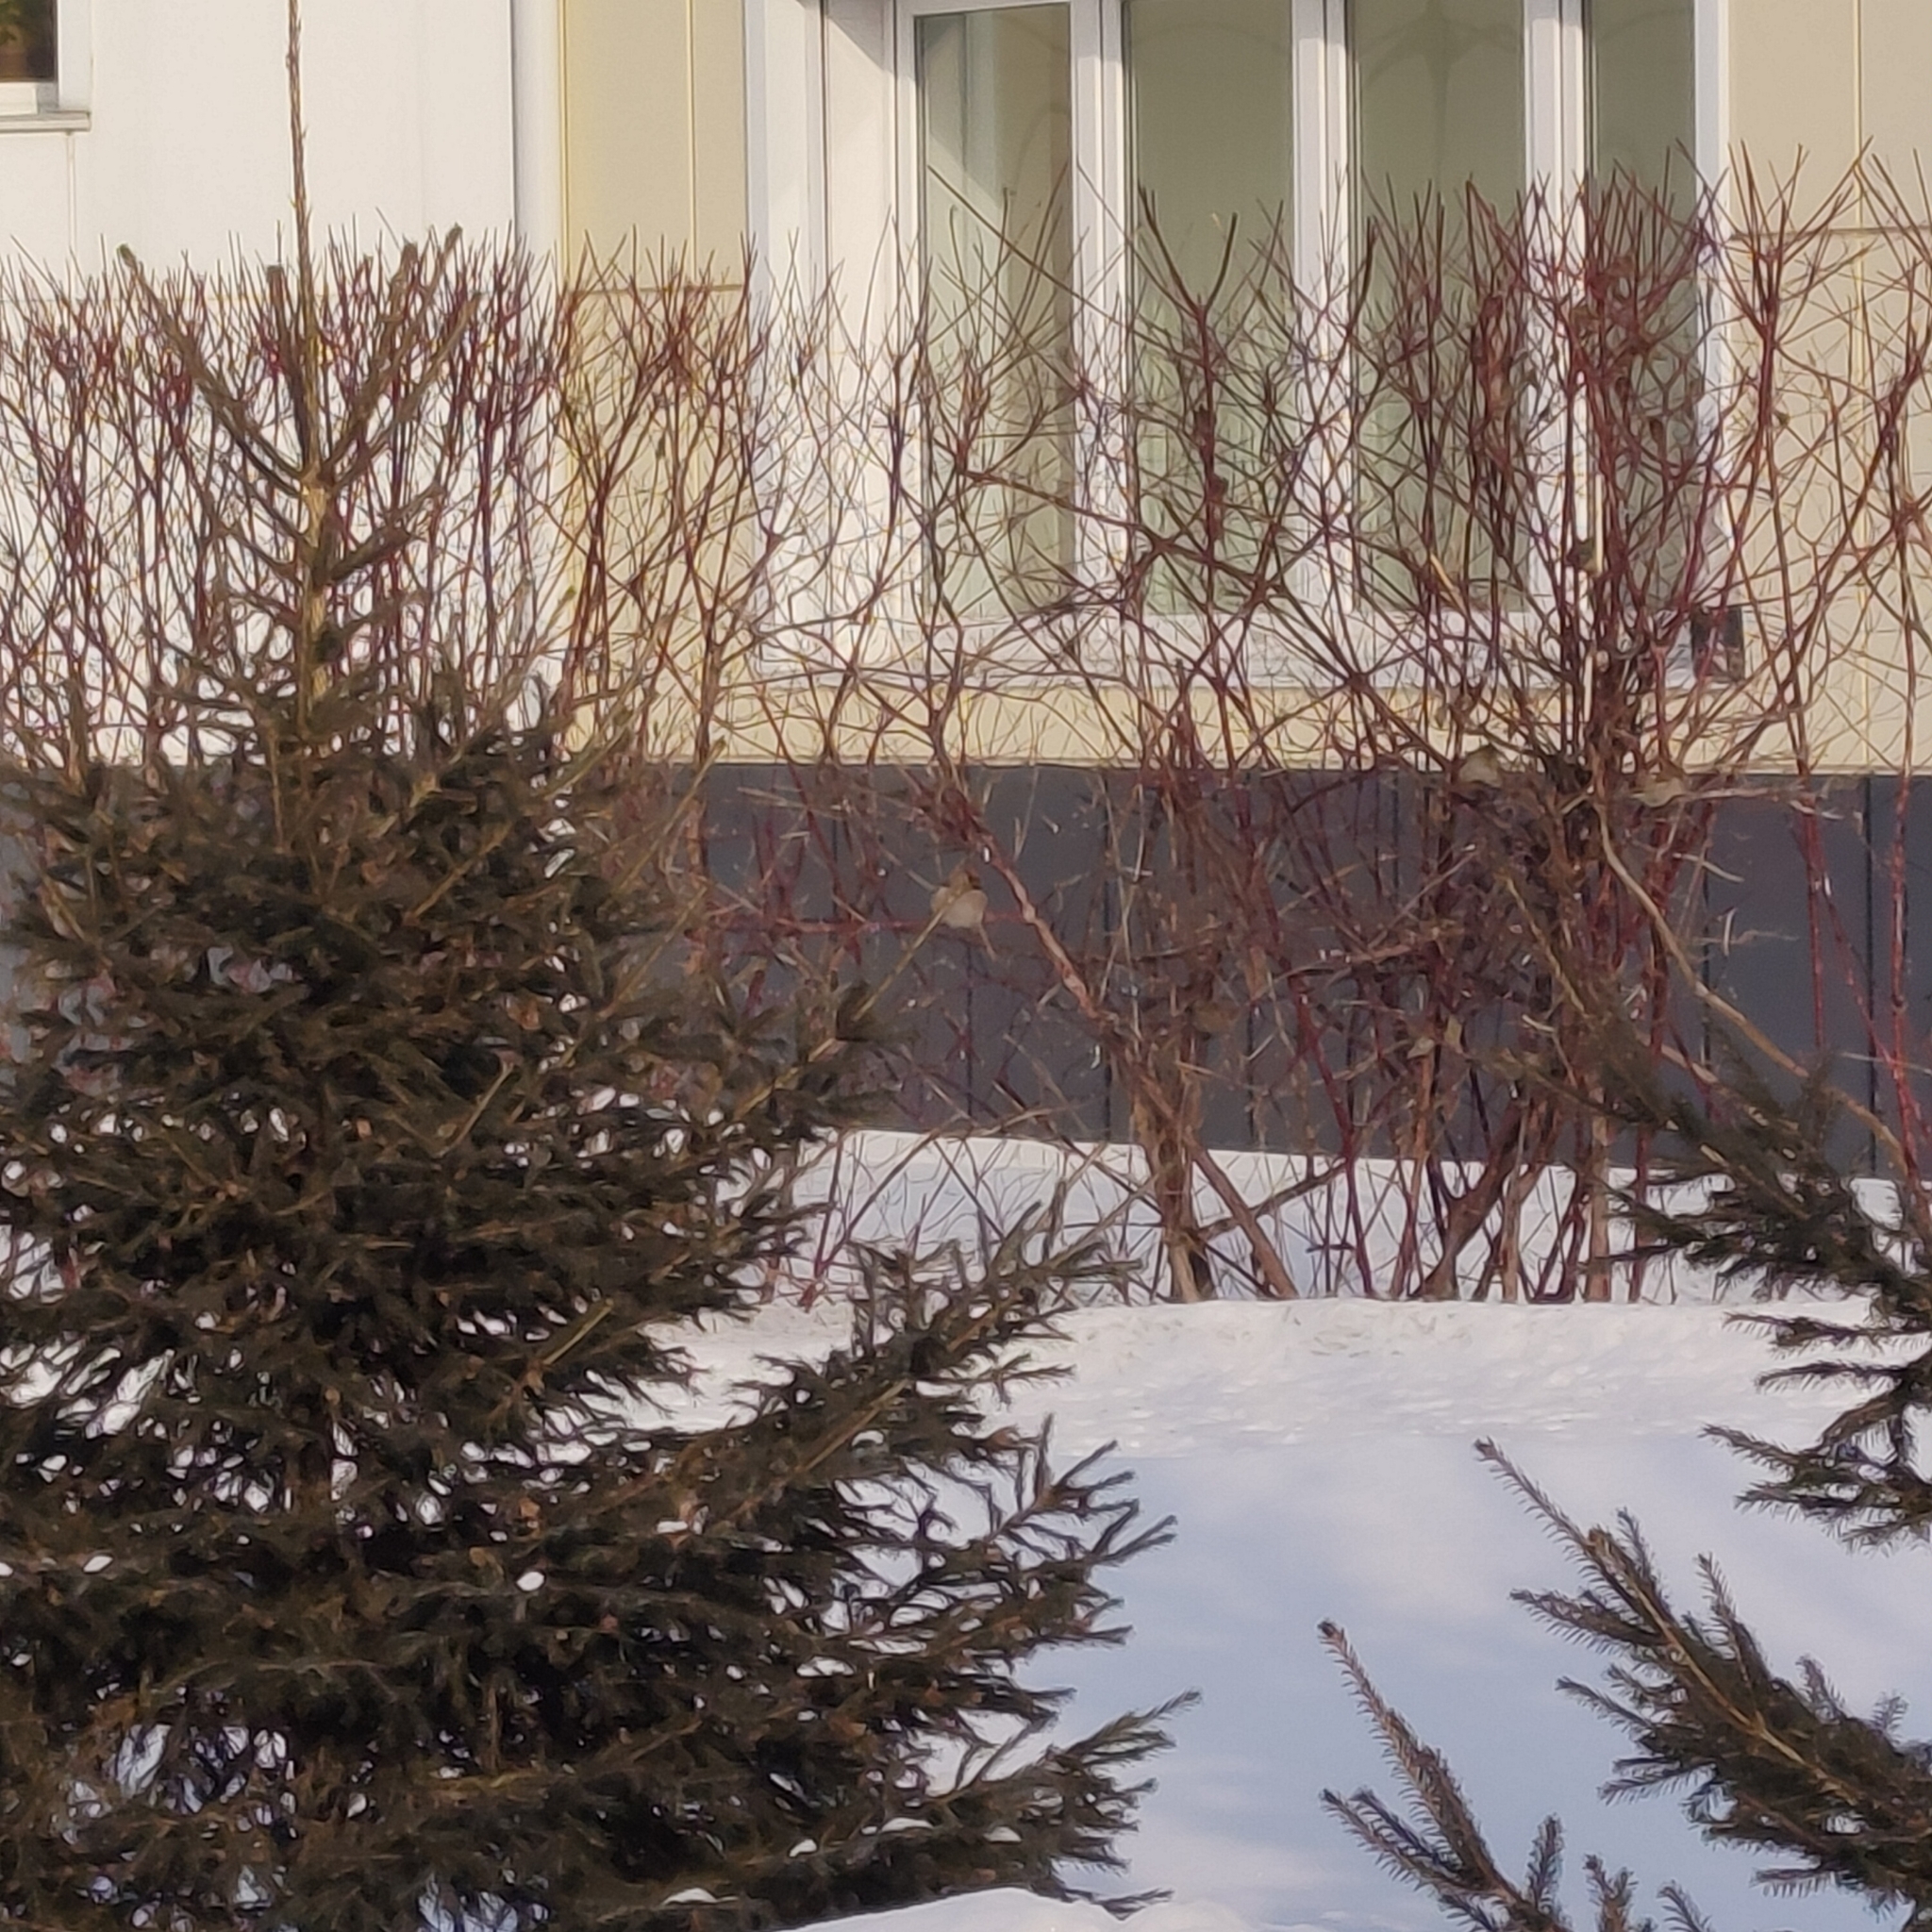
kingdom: Animalia
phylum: Chordata
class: Aves
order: Passeriformes
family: Bombycillidae
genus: Bombycilla
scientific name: Bombycilla garrulus
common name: Bohemian waxwing
